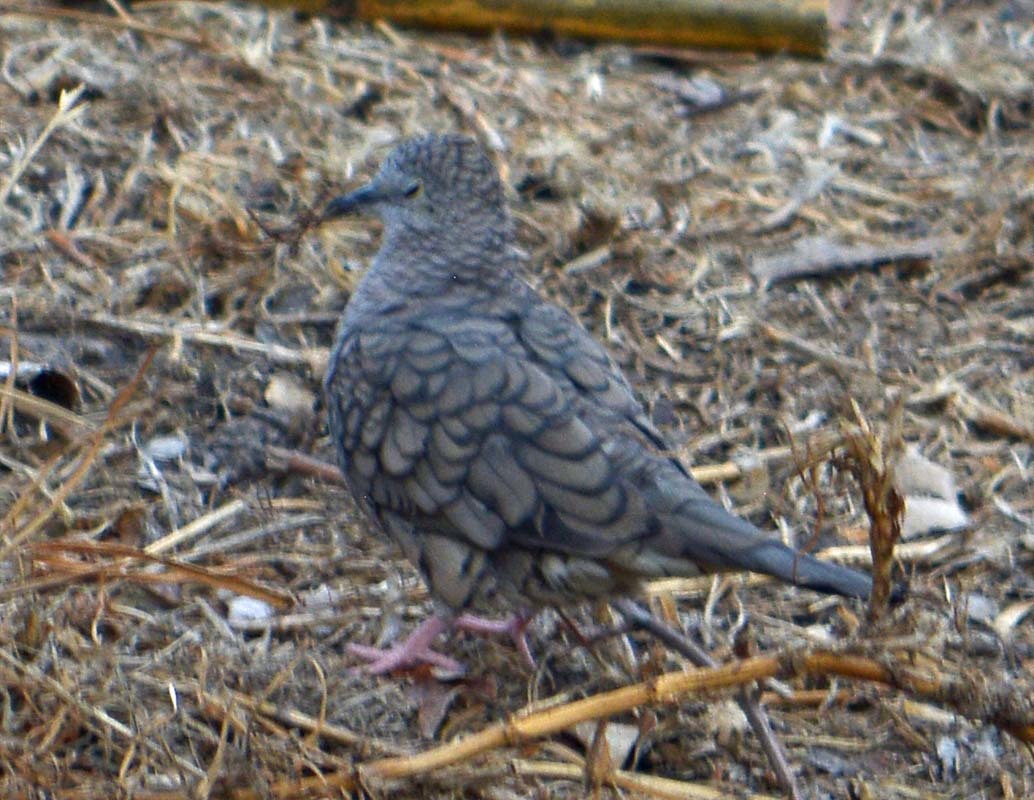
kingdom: Animalia
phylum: Chordata
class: Aves
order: Columbiformes
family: Columbidae
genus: Columbina
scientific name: Columbina inca
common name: Inca dove
